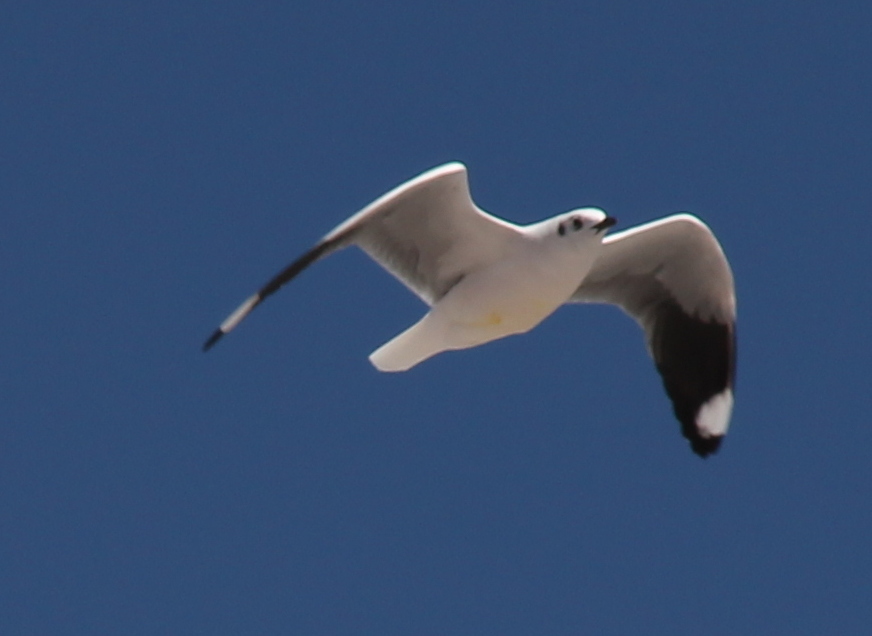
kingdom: Animalia
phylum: Chordata
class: Aves
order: Charadriiformes
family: Laridae
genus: Chroicocephalus
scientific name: Chroicocephalus serranus
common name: Andean gull
